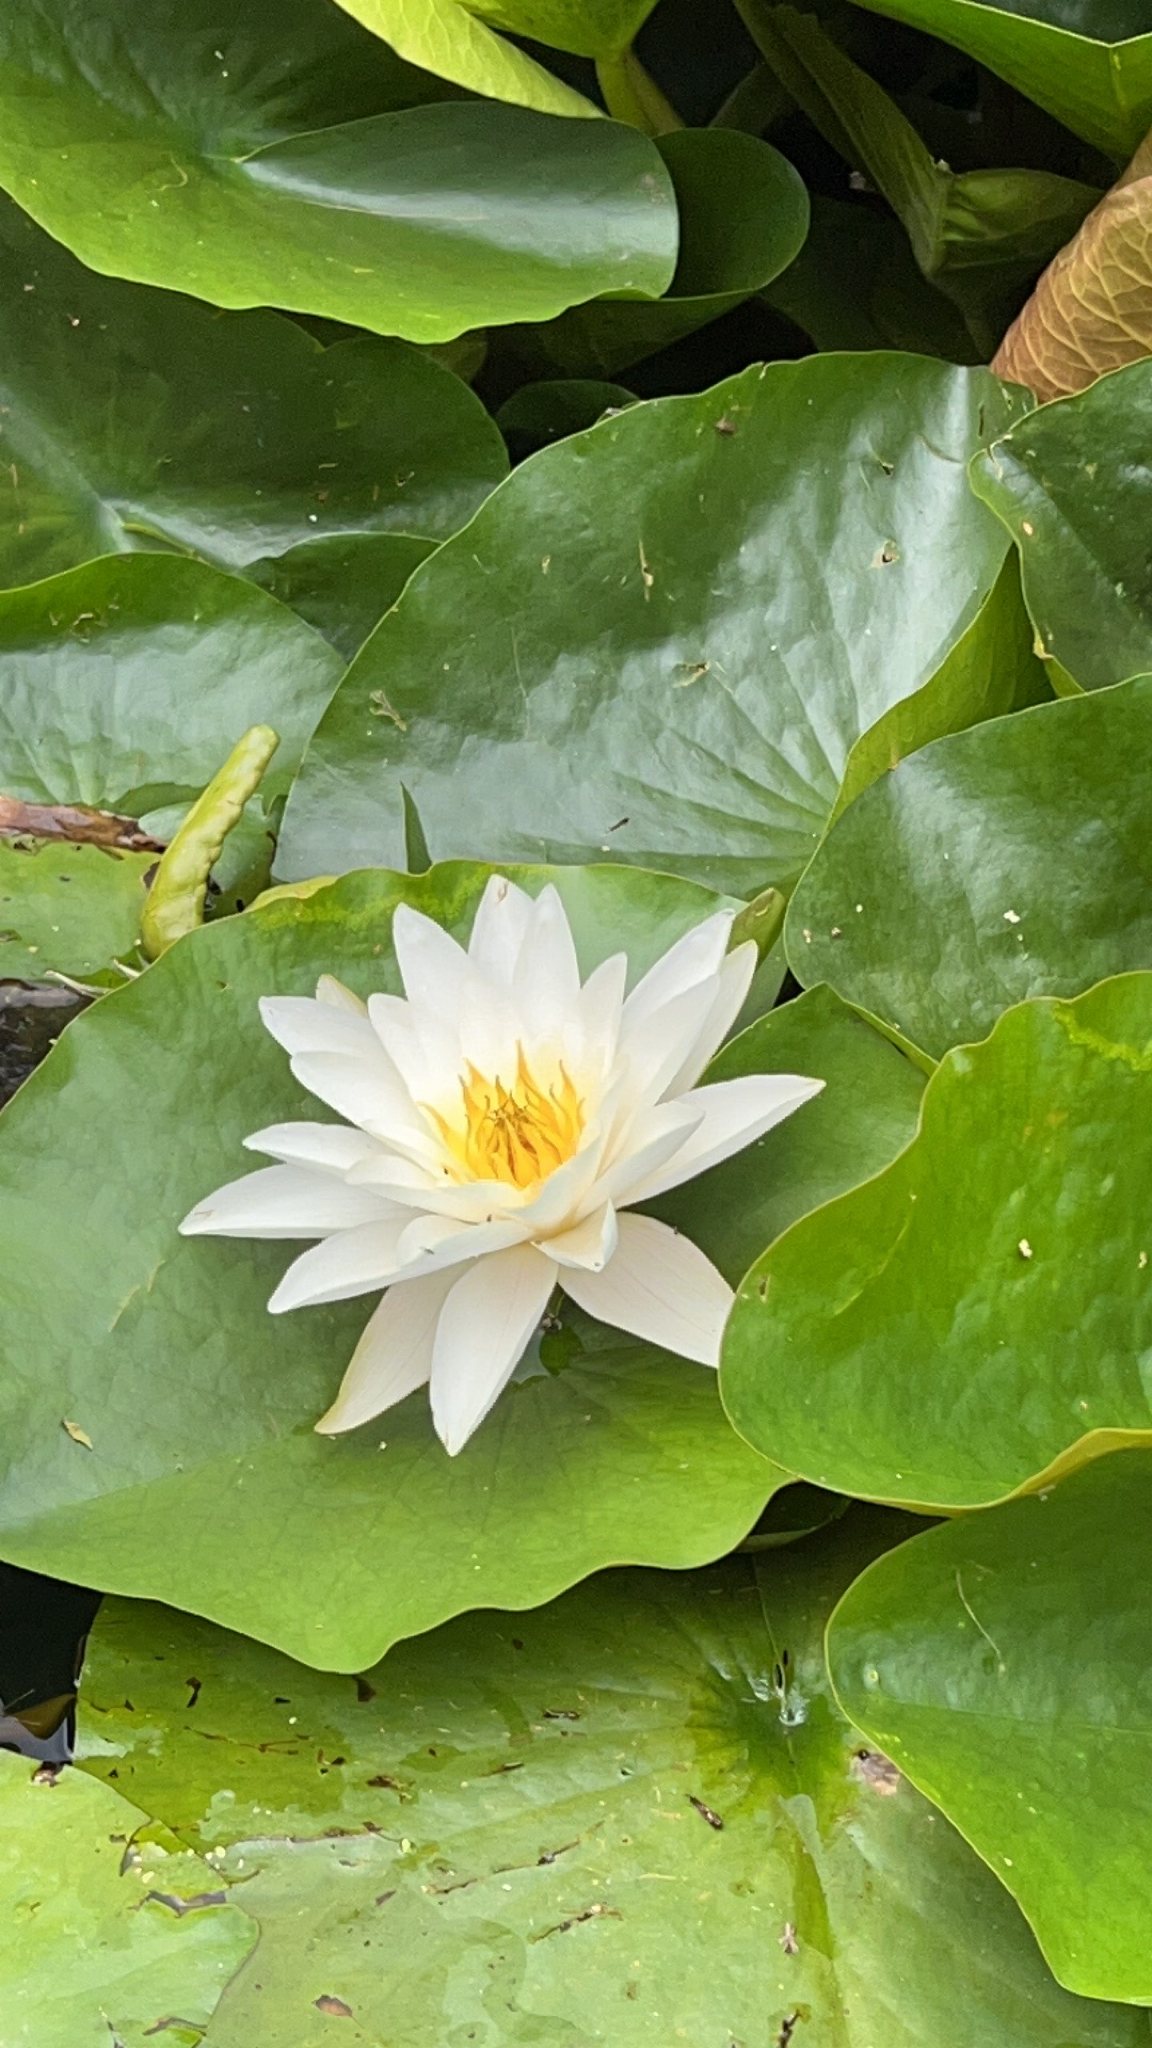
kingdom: Plantae
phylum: Tracheophyta
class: Magnoliopsida
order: Nymphaeales
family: Nymphaeaceae
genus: Nymphaea
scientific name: Nymphaea alba
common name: White water-lily
